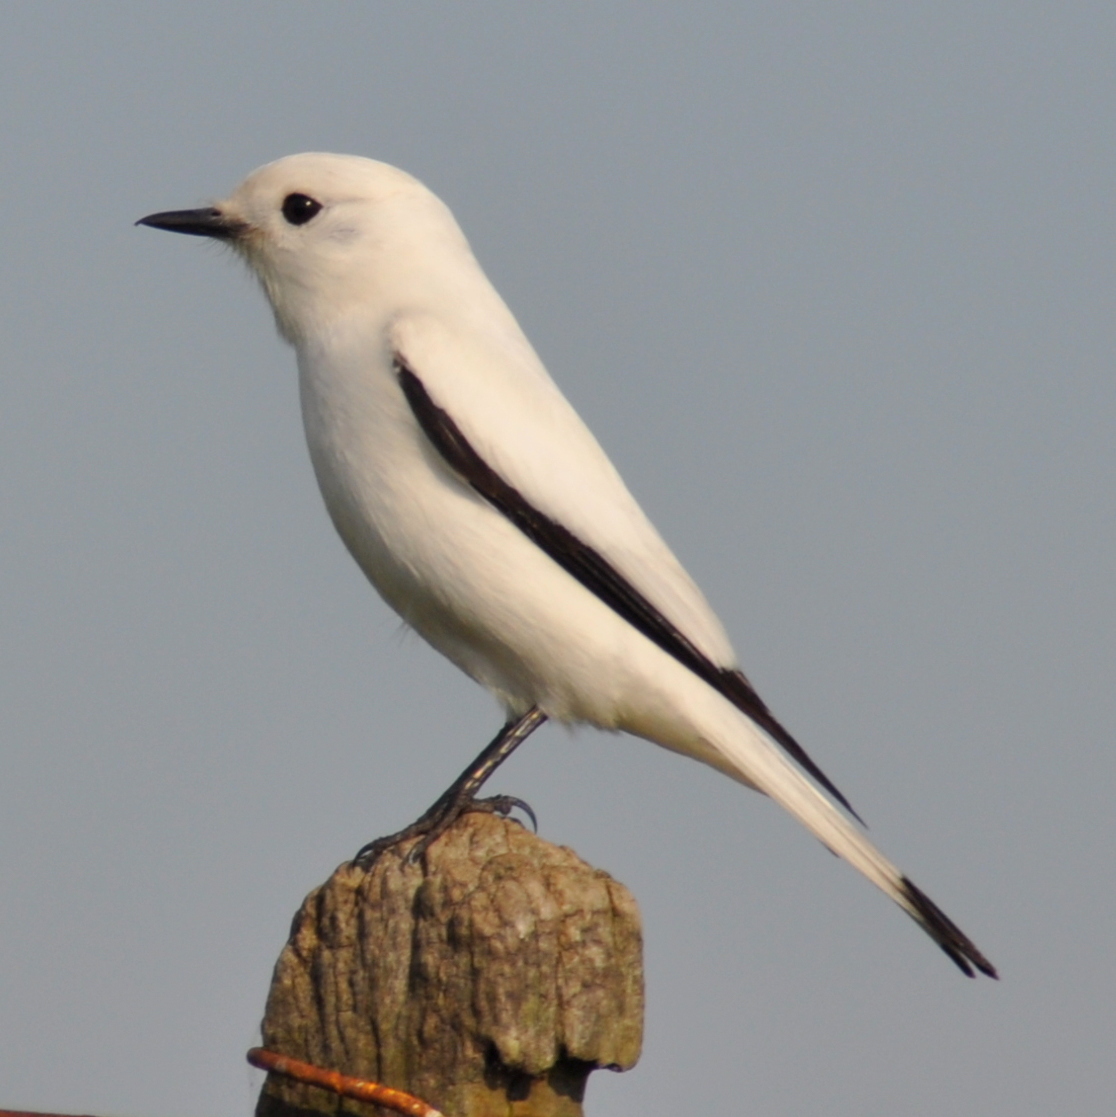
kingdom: Animalia
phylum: Chordata
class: Aves
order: Passeriformes
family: Tyrannidae
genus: Xolmis
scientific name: Xolmis irupero
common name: White monjita
